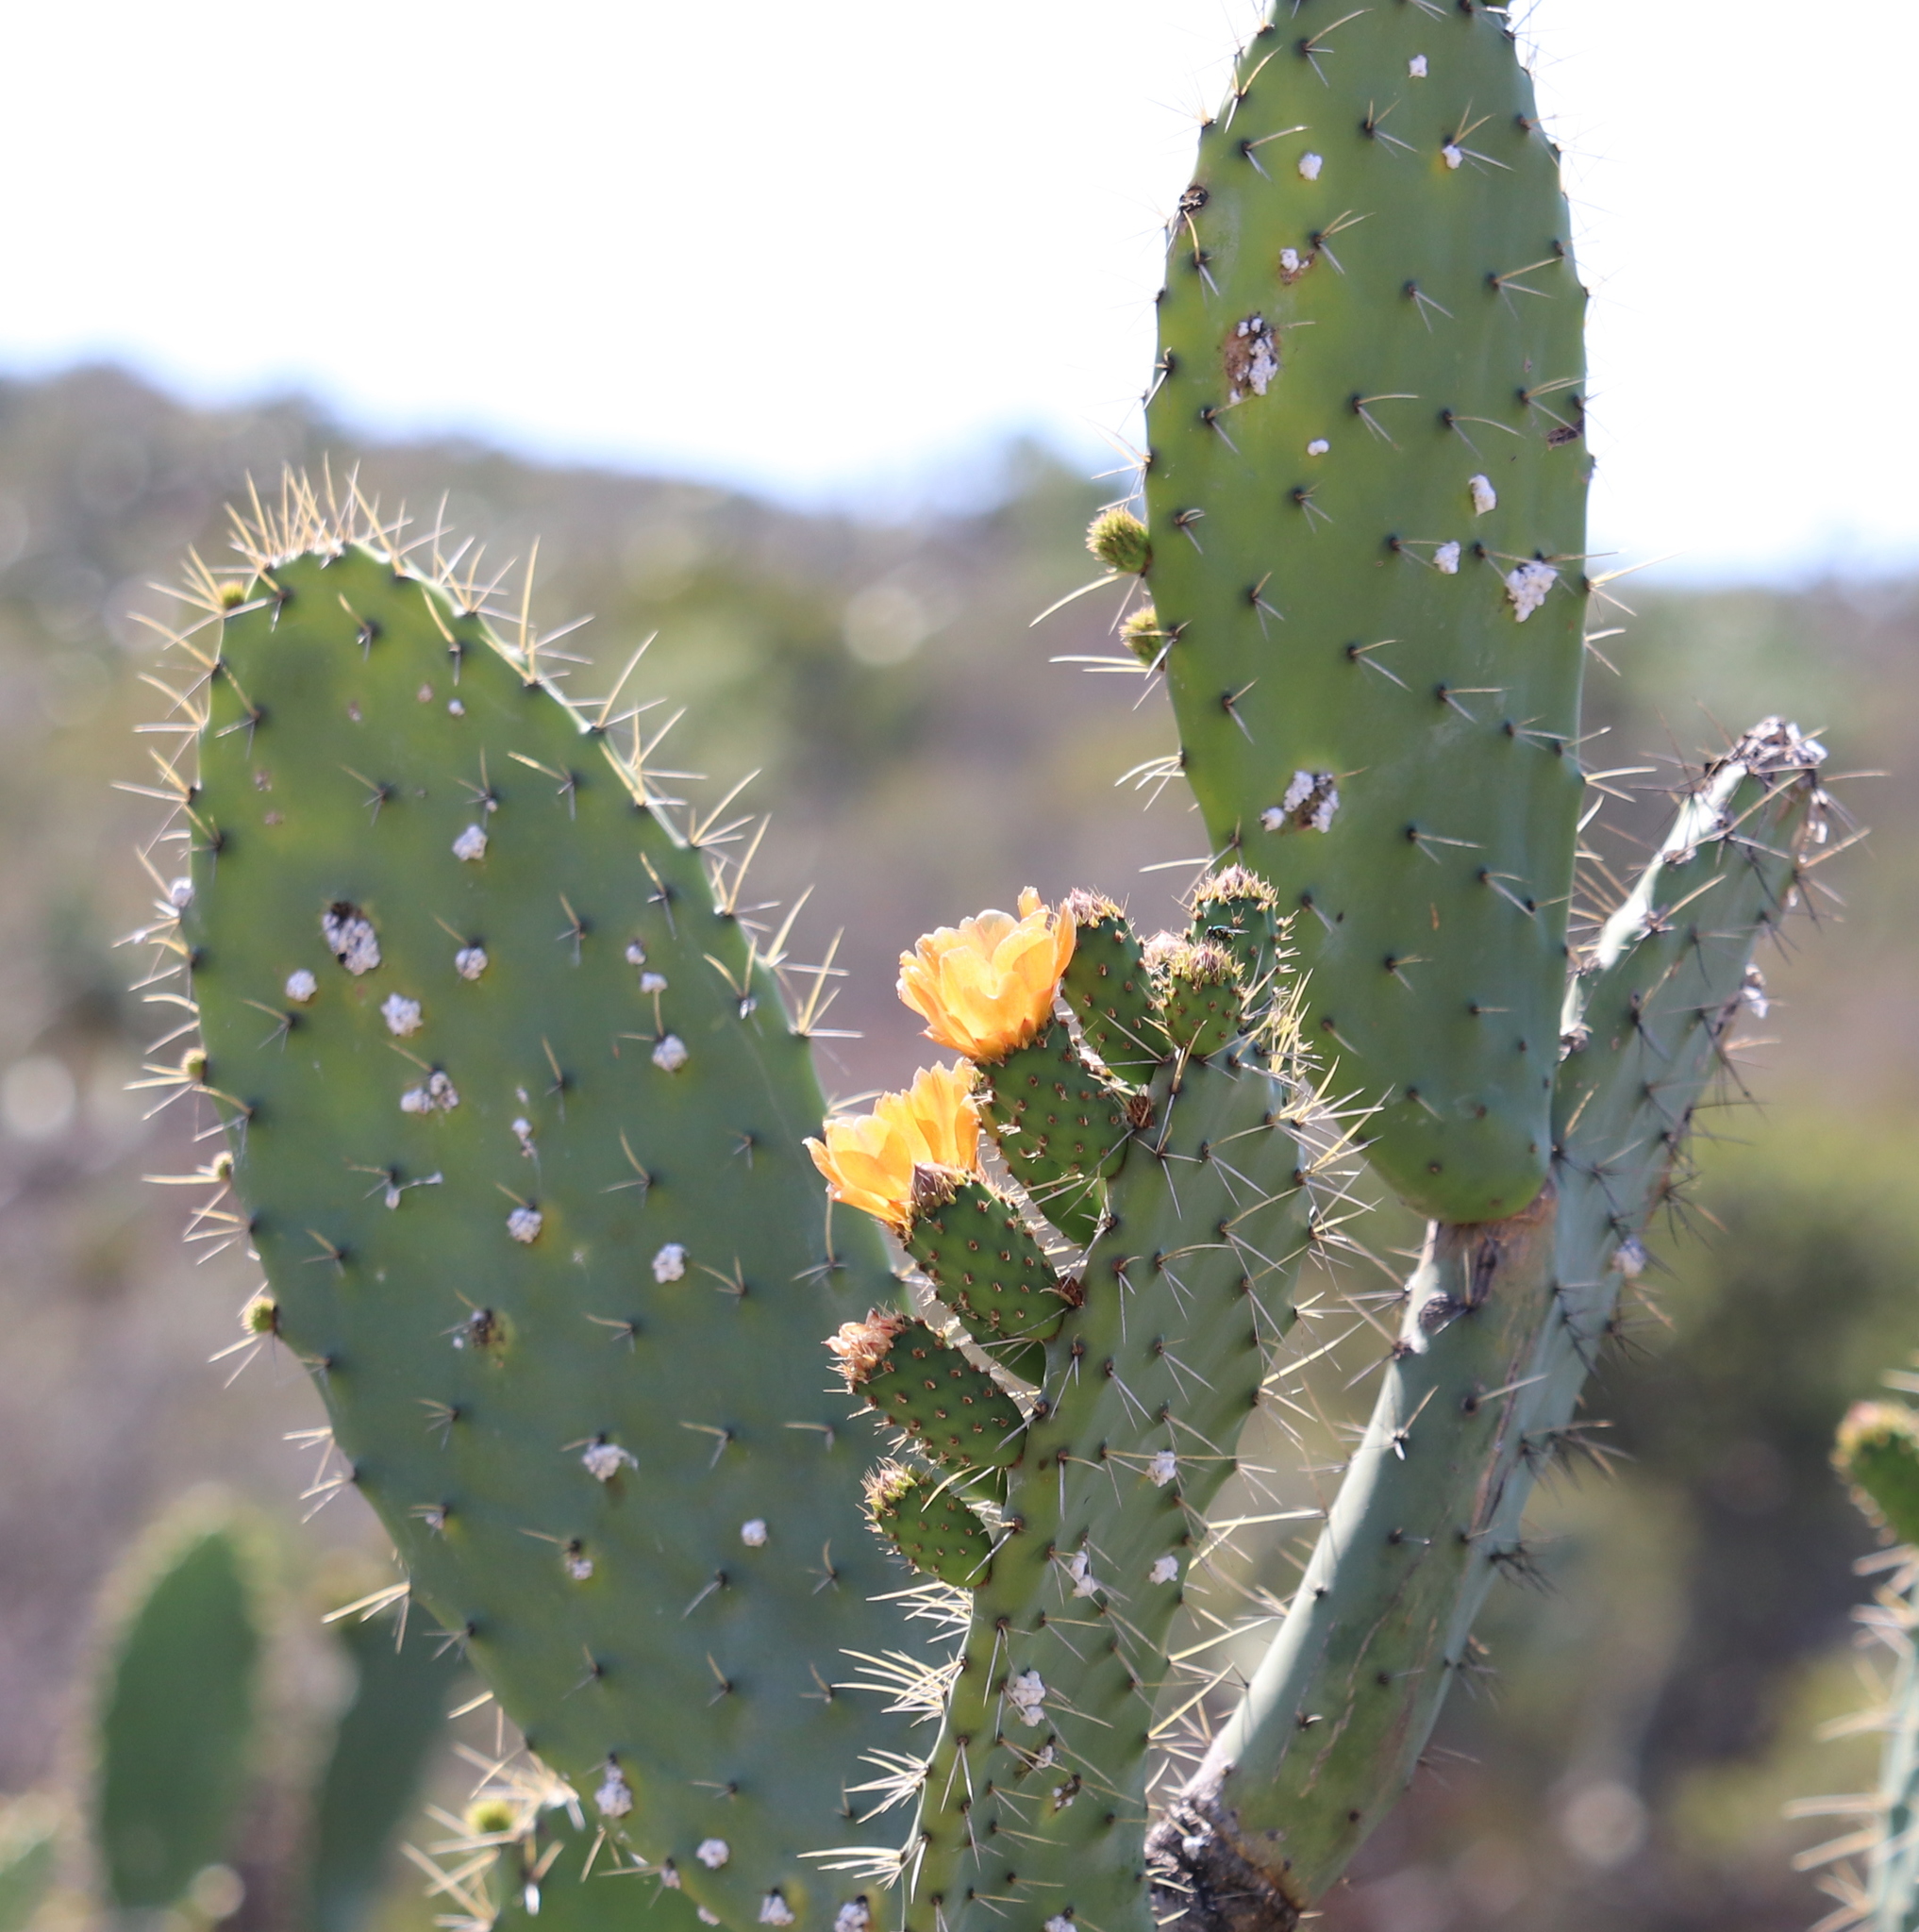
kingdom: Plantae
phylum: Tracheophyta
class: Magnoliopsida
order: Caryophyllales
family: Cactaceae
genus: Opuntia
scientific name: Opuntia ficus-indica
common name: Barbary fig
